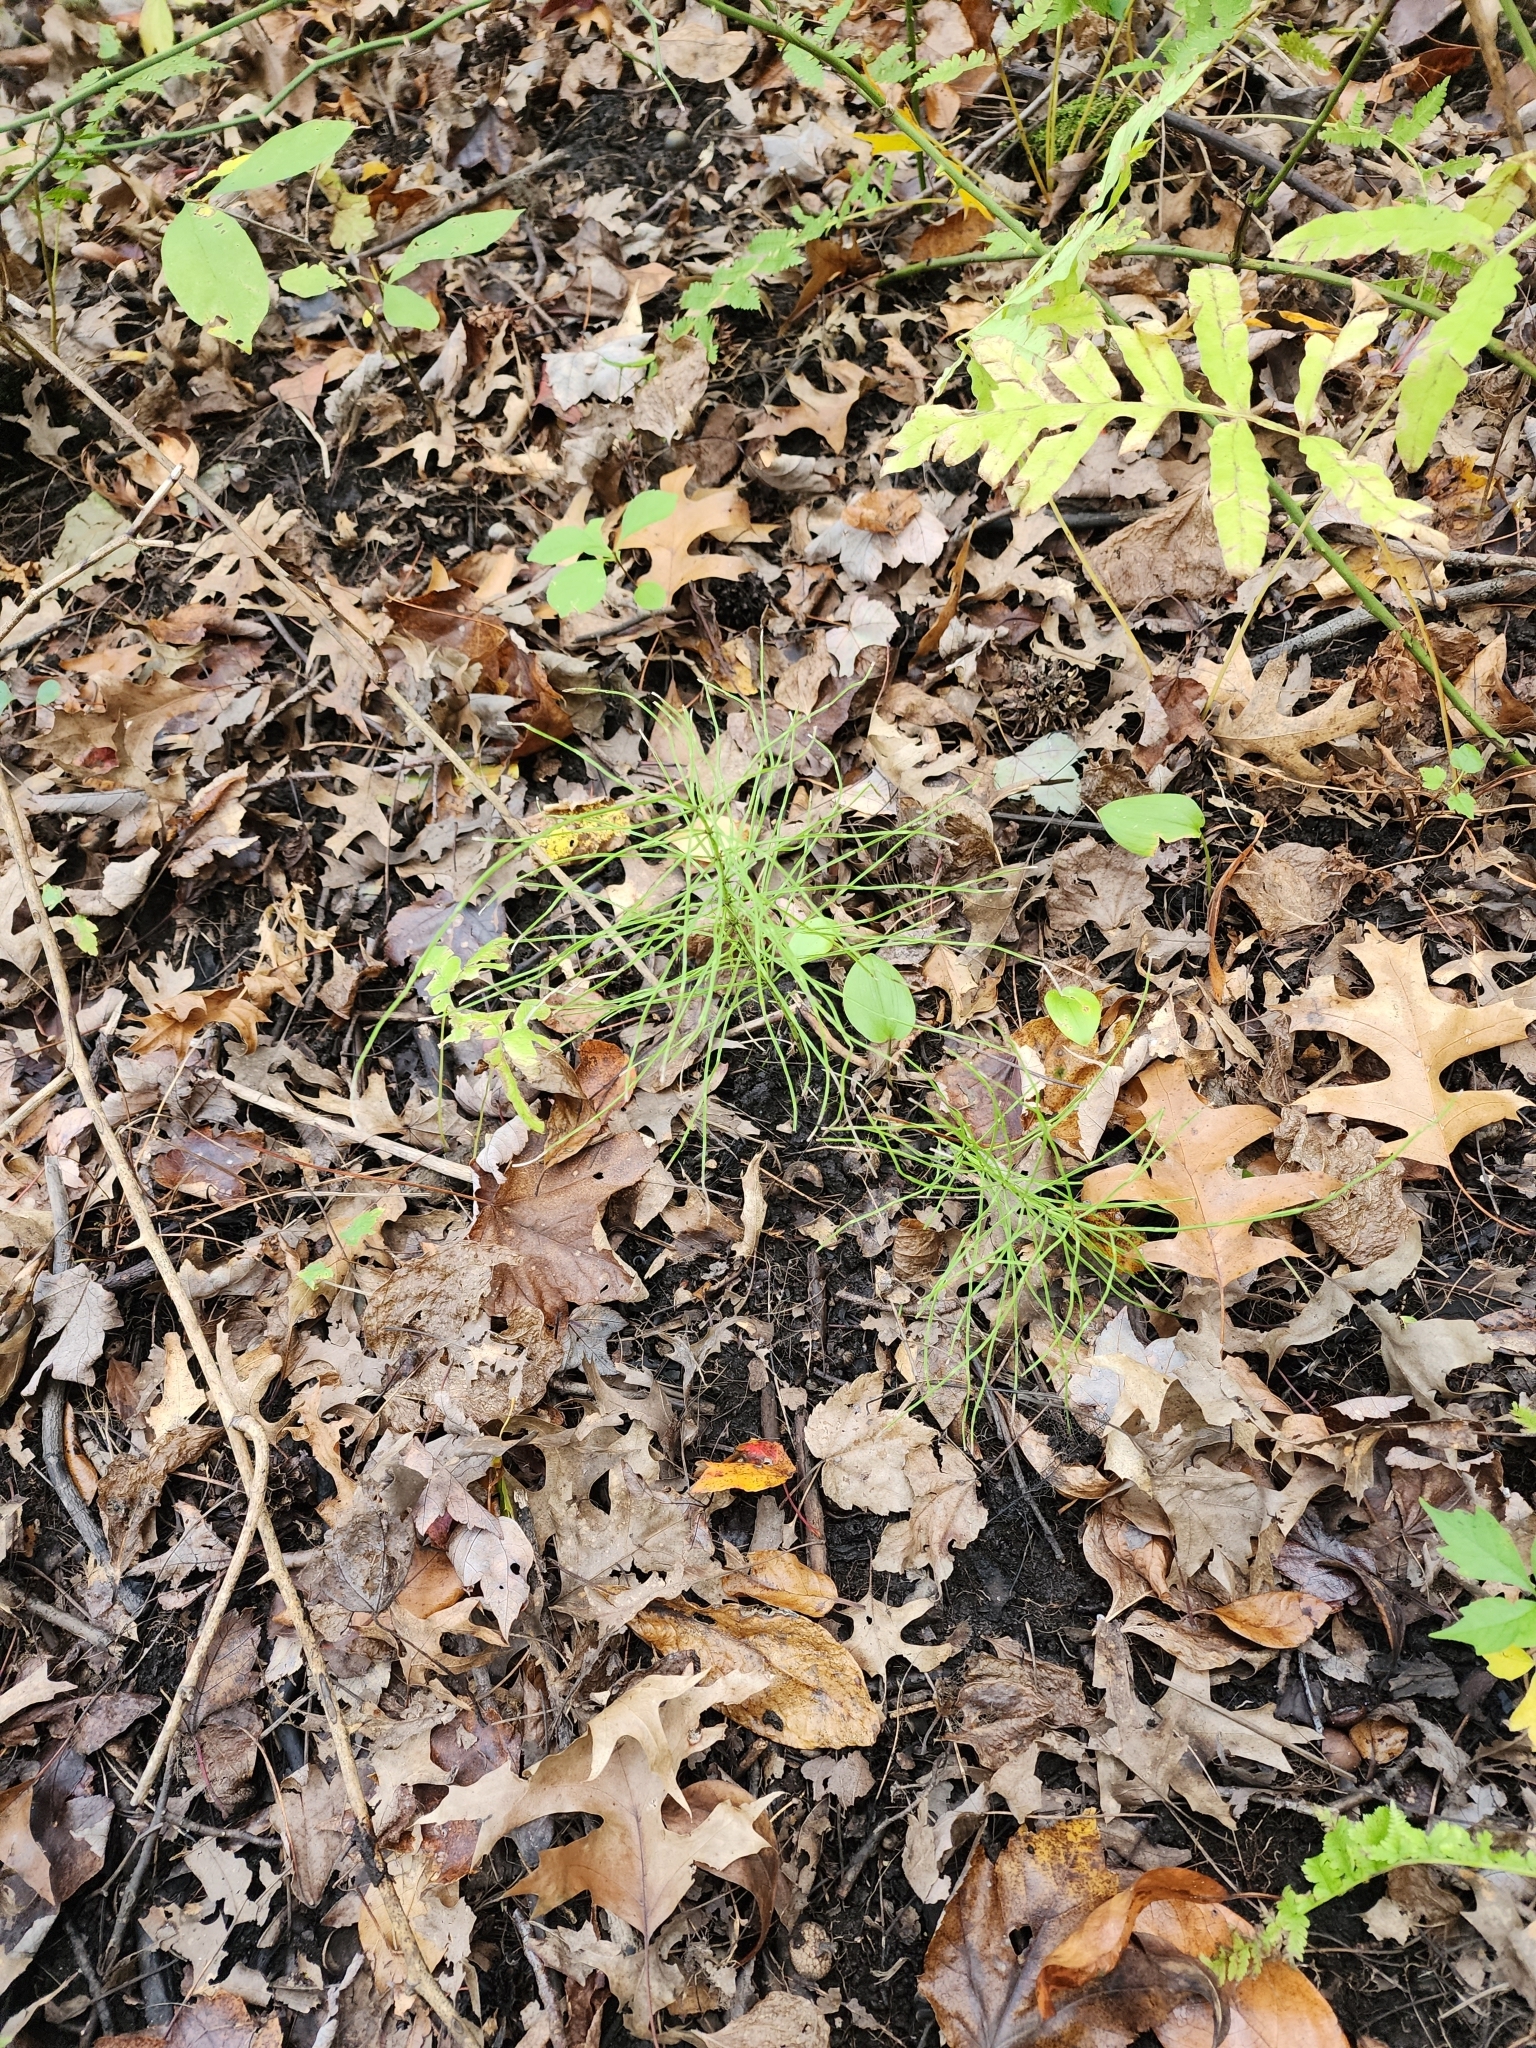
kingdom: Plantae
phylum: Tracheophyta
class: Polypodiopsida
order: Equisetales
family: Equisetaceae
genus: Equisetum
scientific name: Equisetum arvense
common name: Field horsetail
